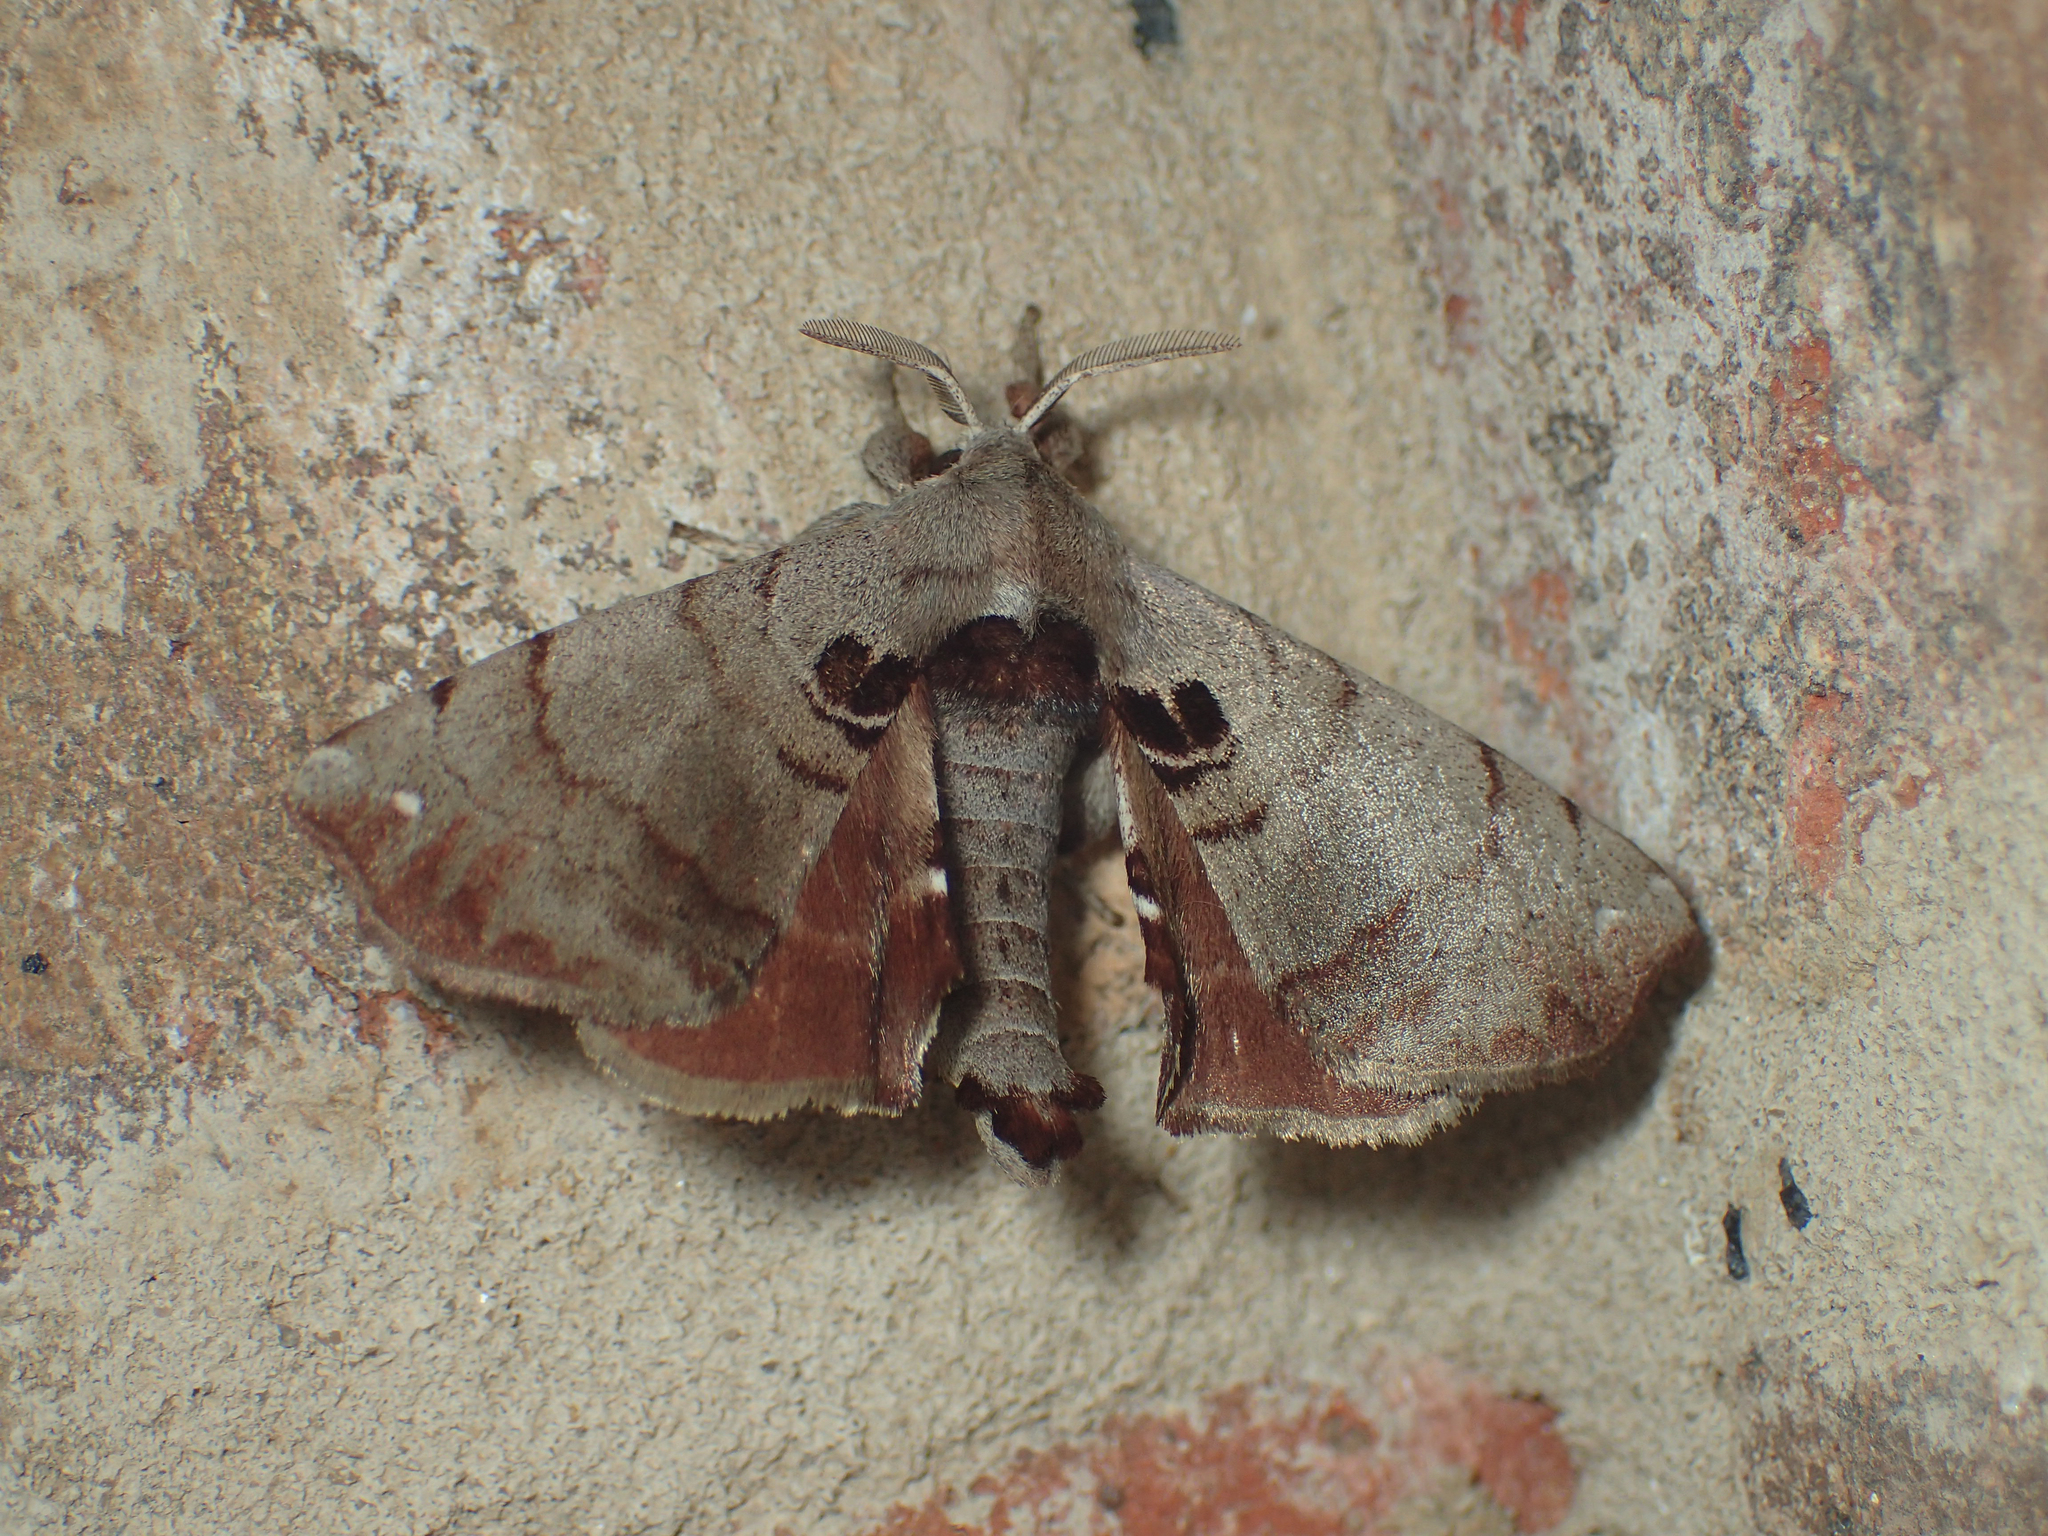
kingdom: Animalia
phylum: Arthropoda
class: Insecta
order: Lepidoptera
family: Apatelodidae
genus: Hygrochroa
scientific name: Hygrochroa Apatelodes torrefacta
